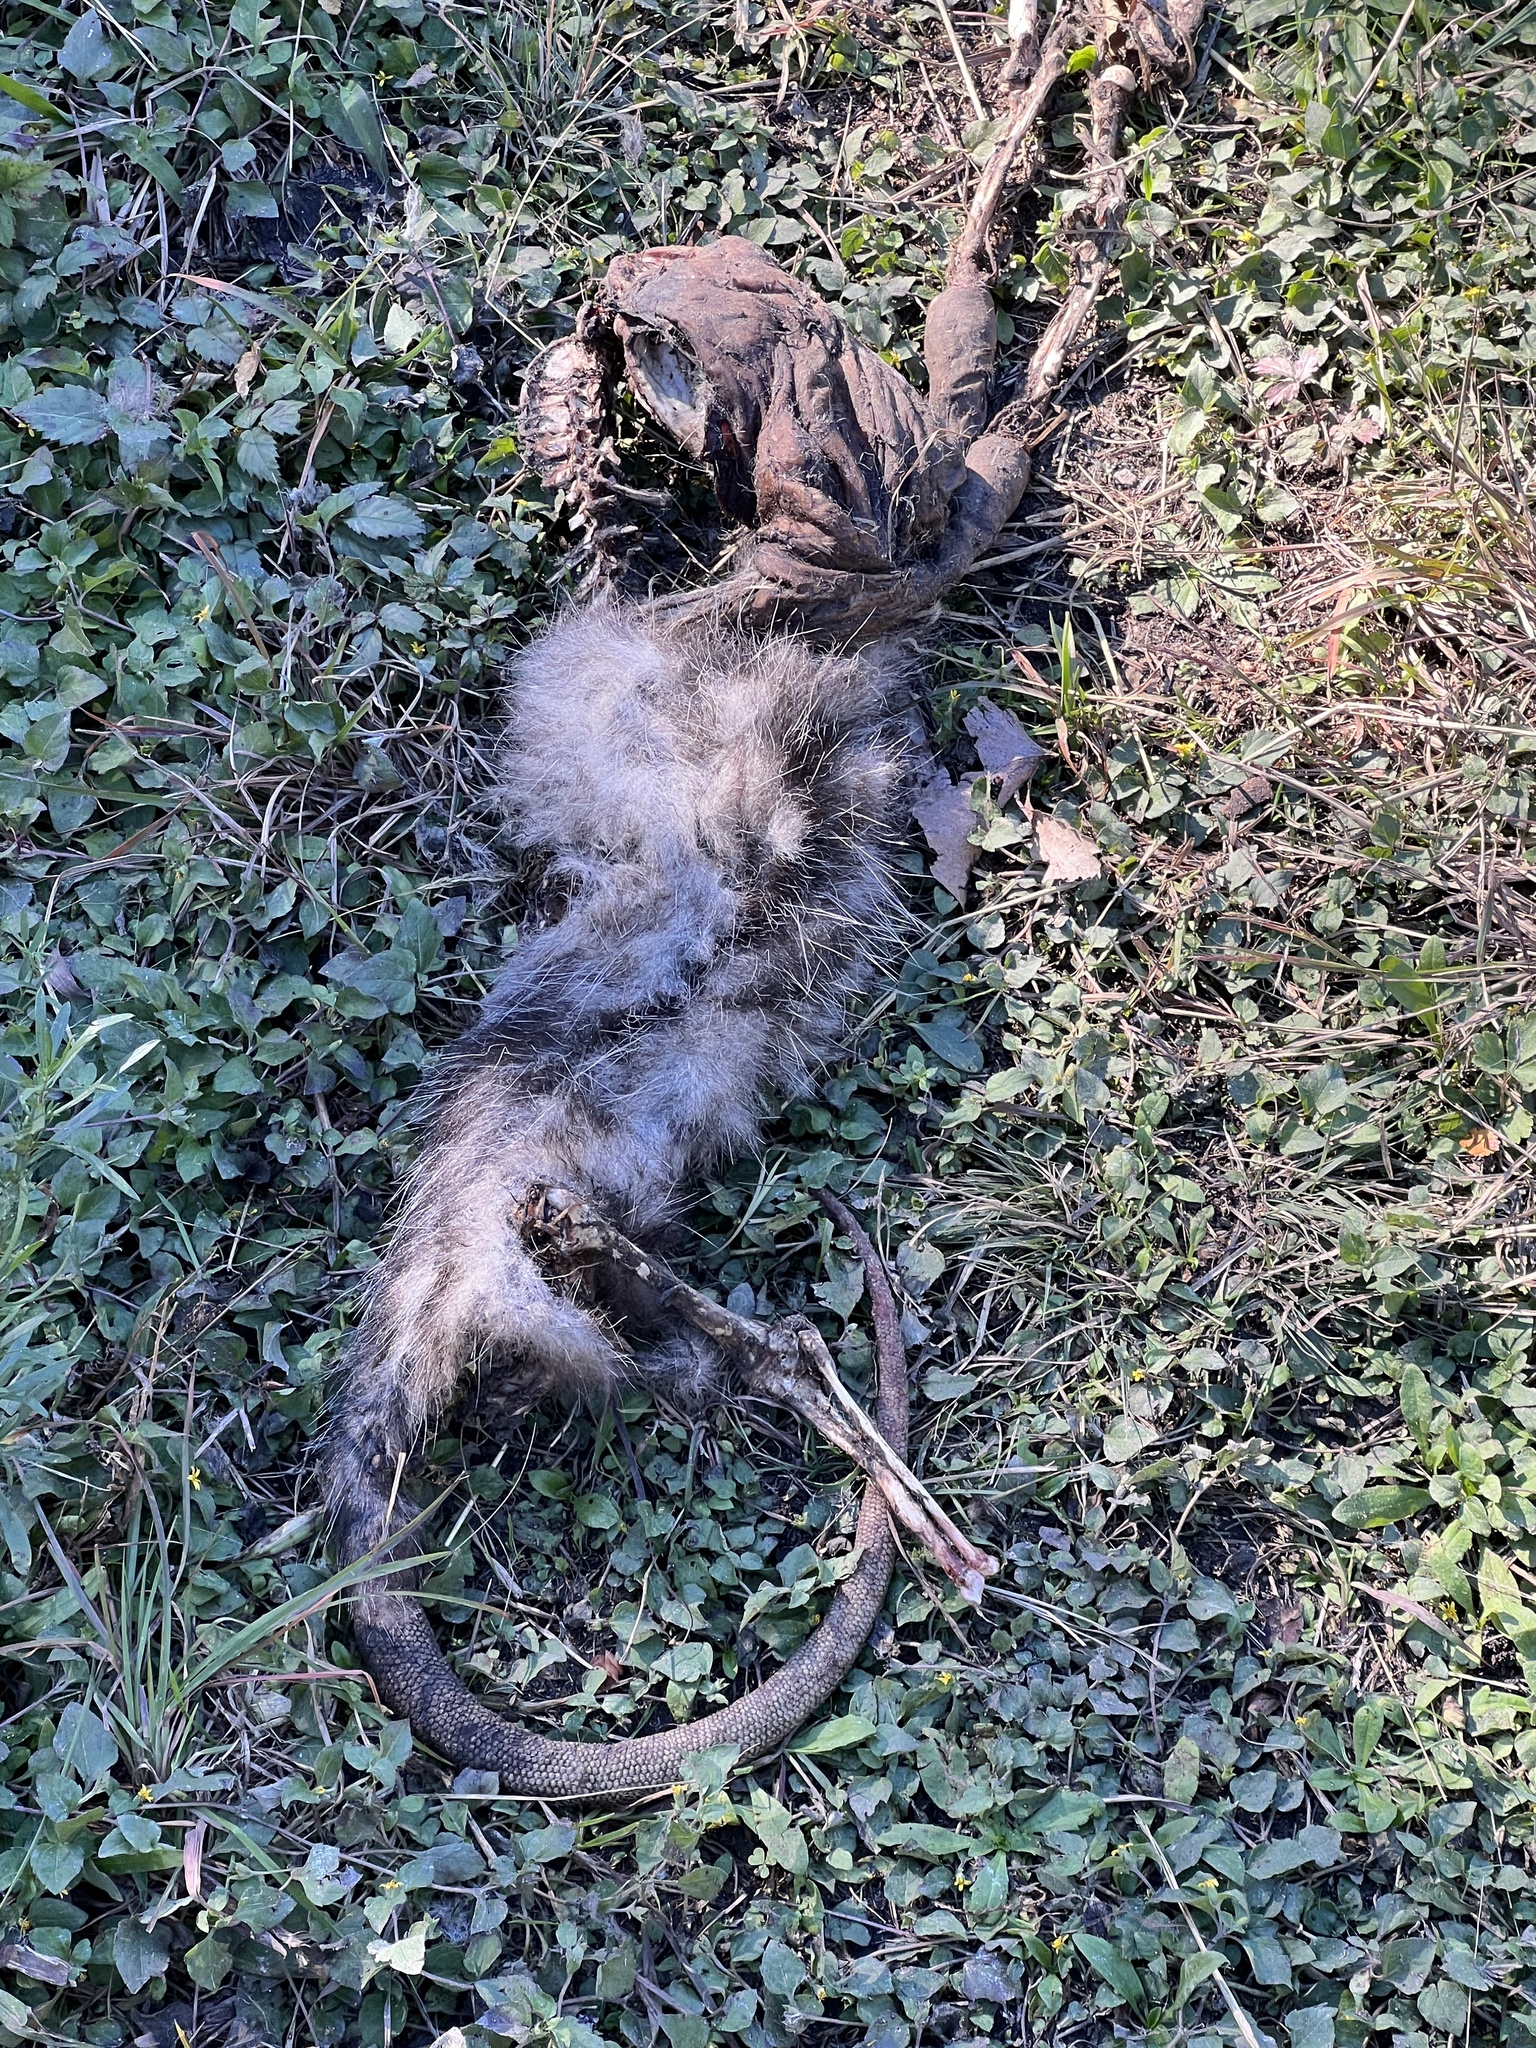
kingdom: Animalia
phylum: Chordata
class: Mammalia
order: Didelphimorphia
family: Didelphidae
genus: Didelphis
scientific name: Didelphis virginiana
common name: Virginia opossum
